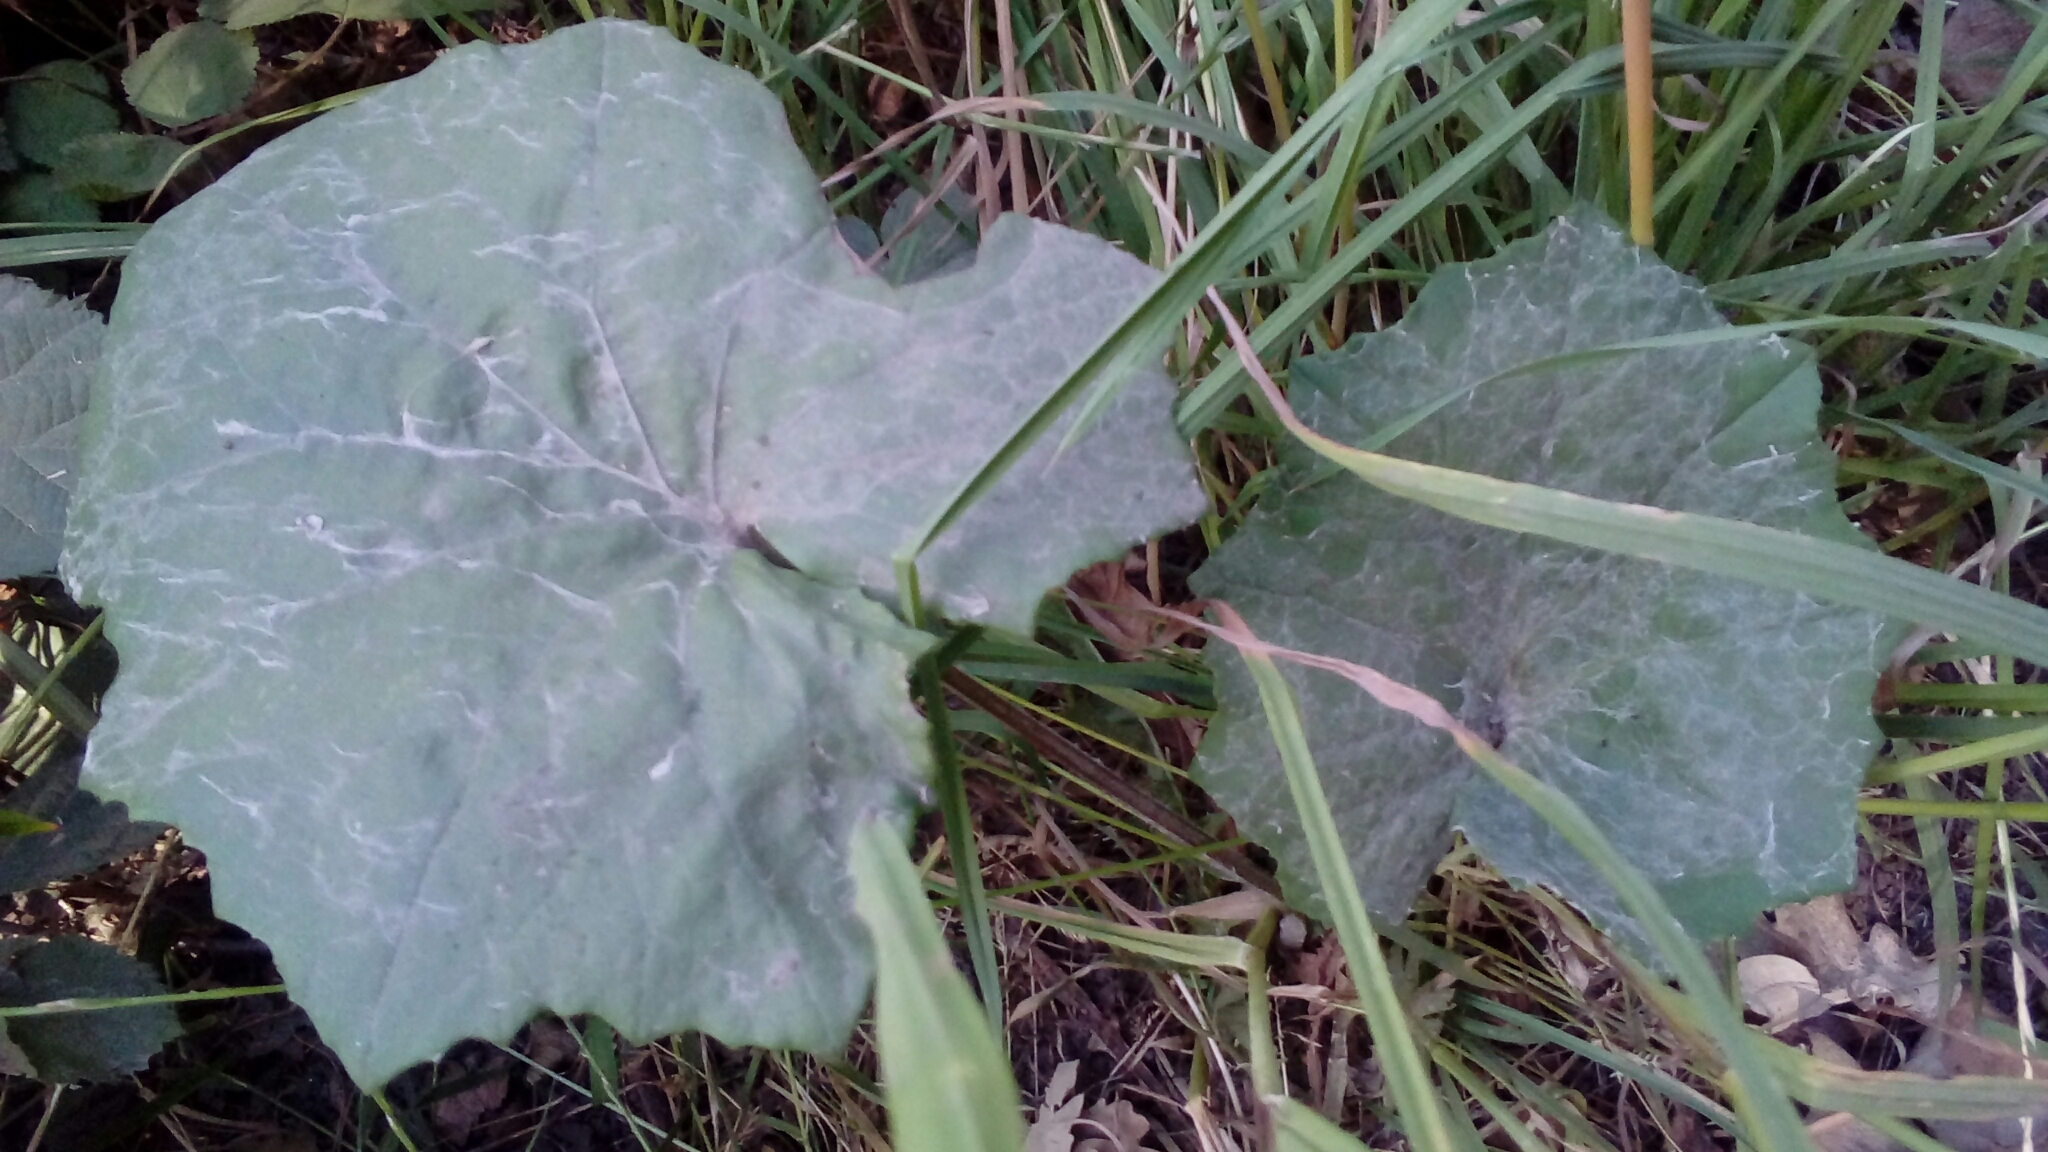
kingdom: Plantae
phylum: Tracheophyta
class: Magnoliopsida
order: Asterales
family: Asteraceae
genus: Tussilago
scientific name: Tussilago farfara
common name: Coltsfoot
